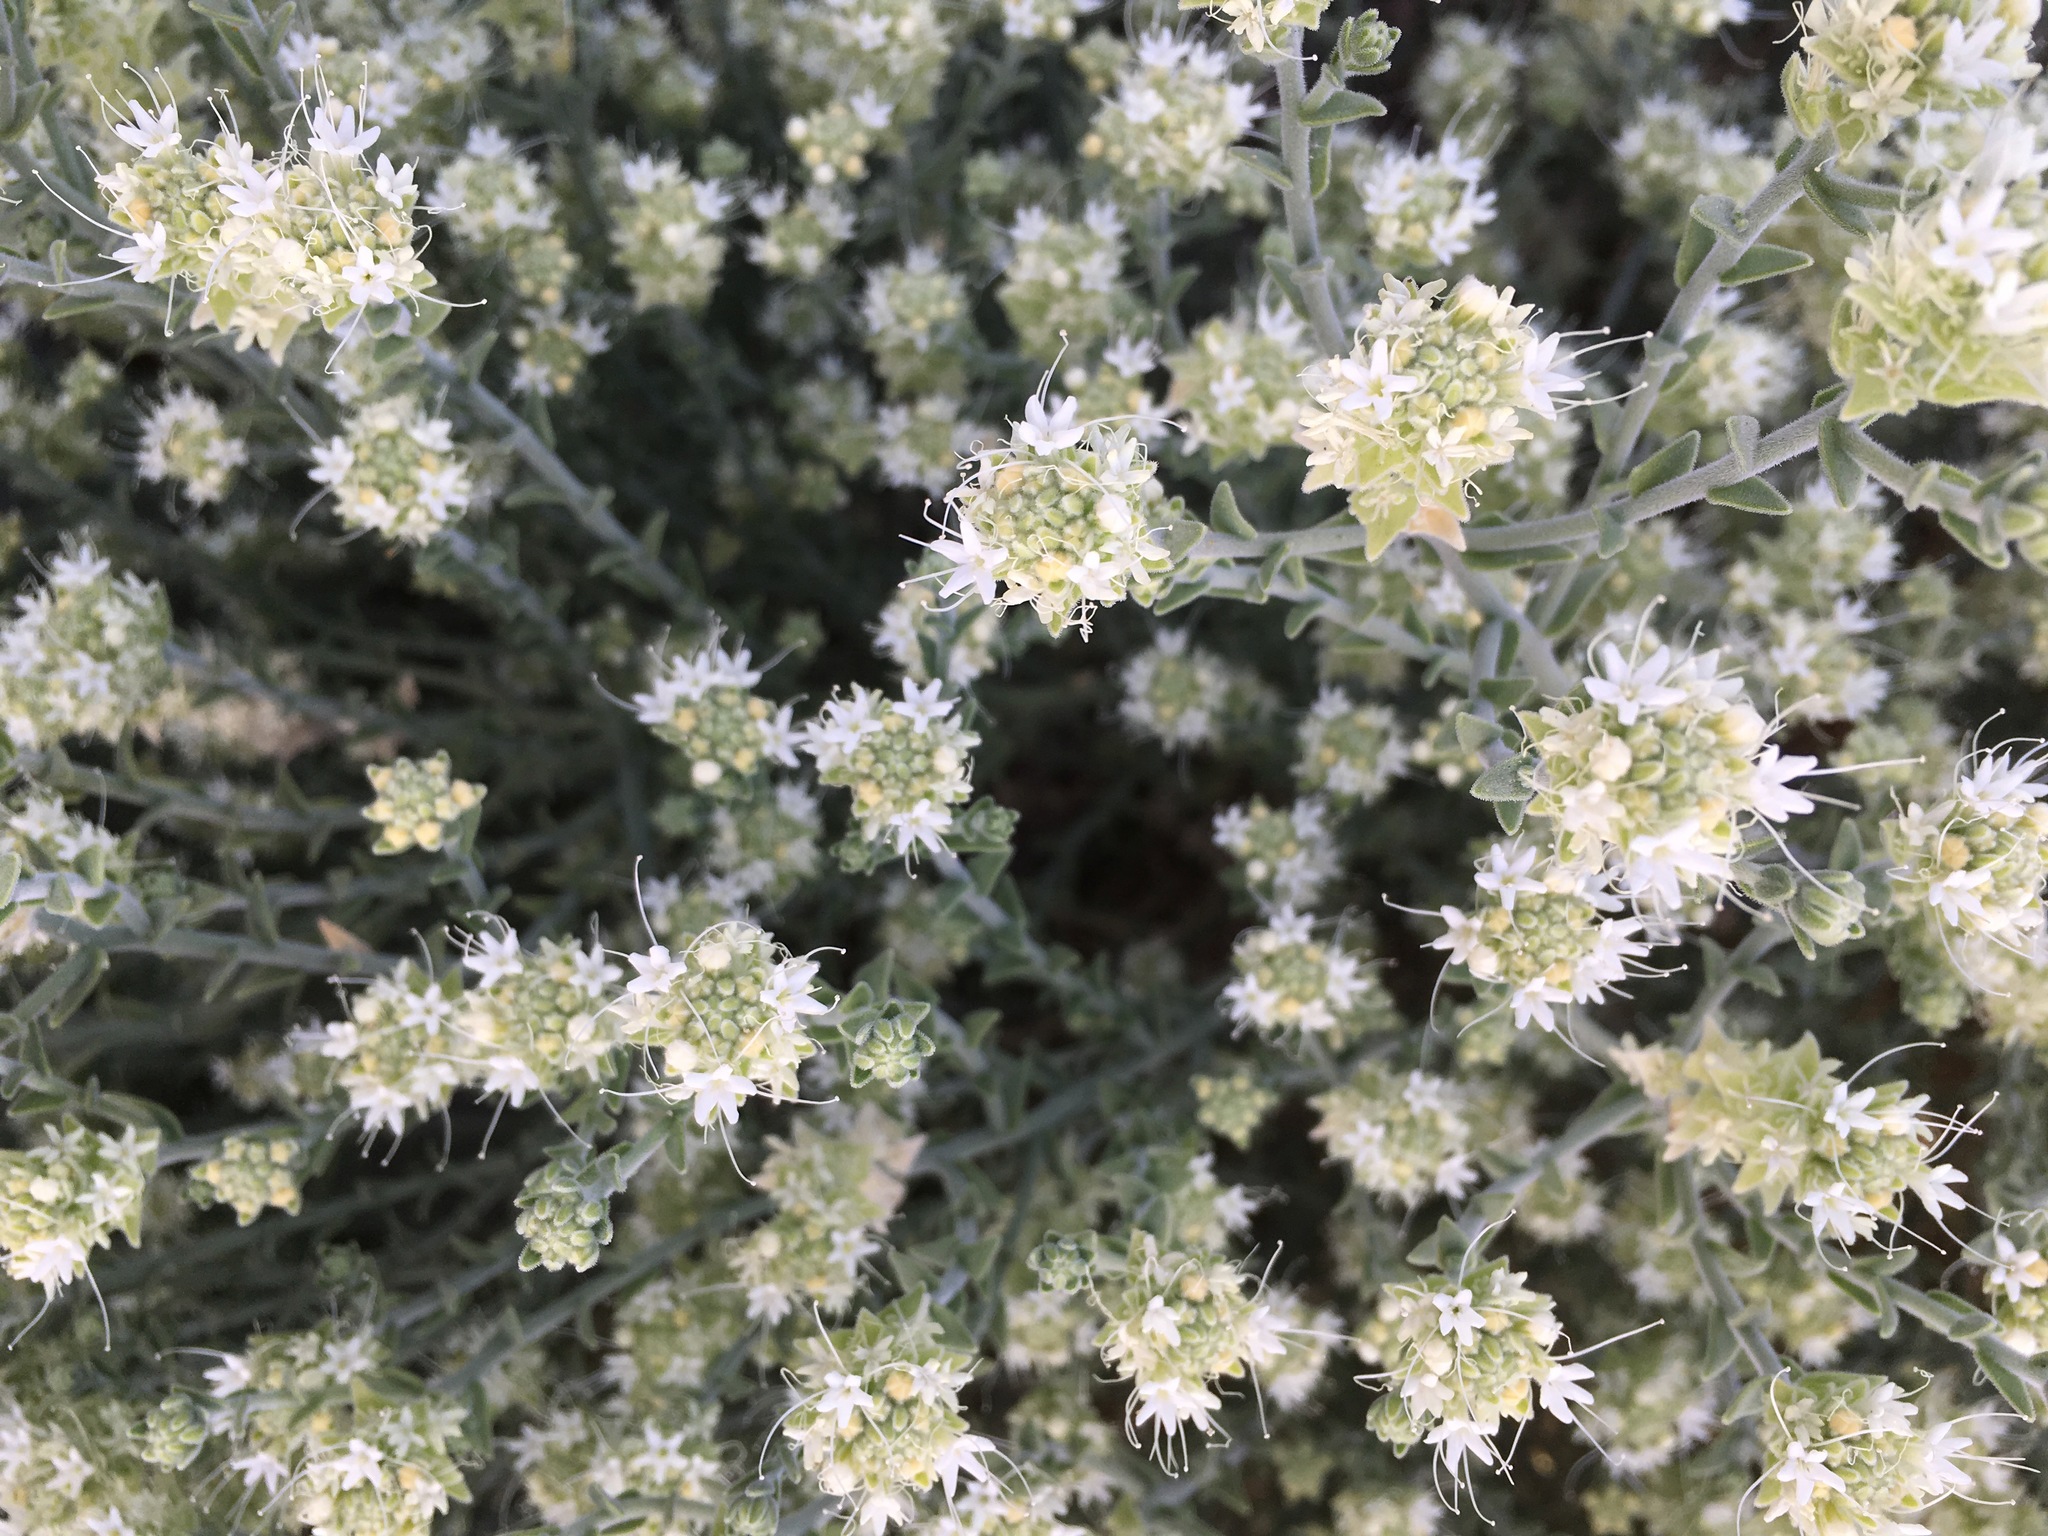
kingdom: Plantae
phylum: Tracheophyta
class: Magnoliopsida
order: Cornales
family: Loasaceae
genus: Petalonyx
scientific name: Petalonyx thurberi
